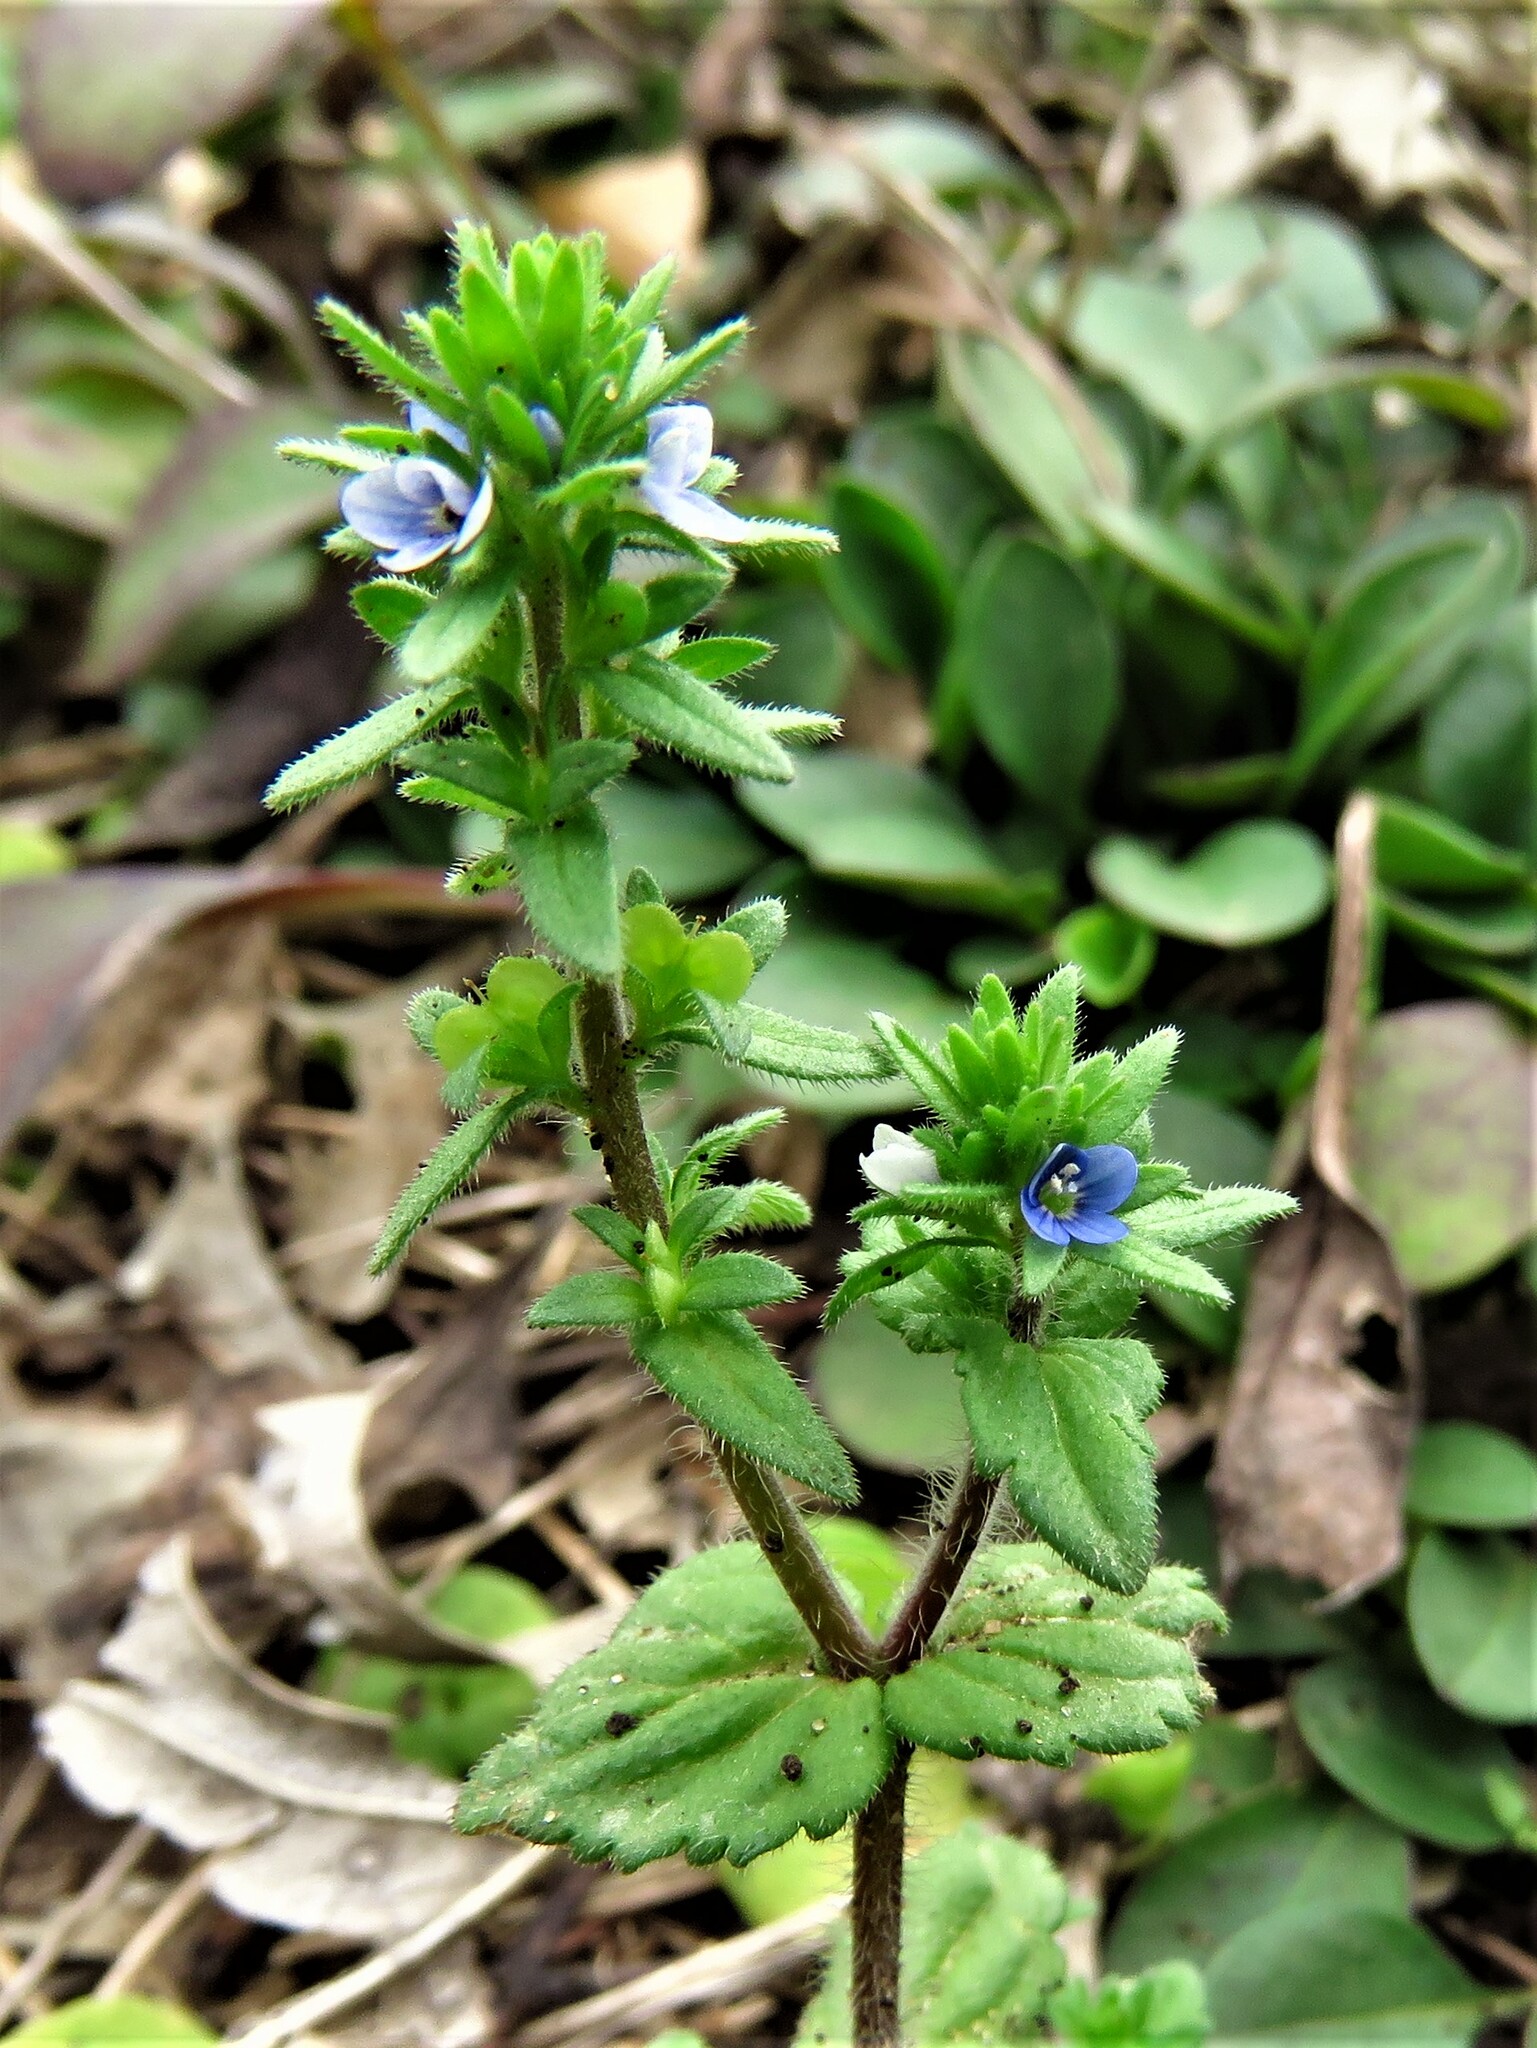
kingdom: Plantae
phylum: Tracheophyta
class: Magnoliopsida
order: Lamiales
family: Plantaginaceae
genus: Veronica
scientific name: Veronica arvensis
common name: Corn speedwell
